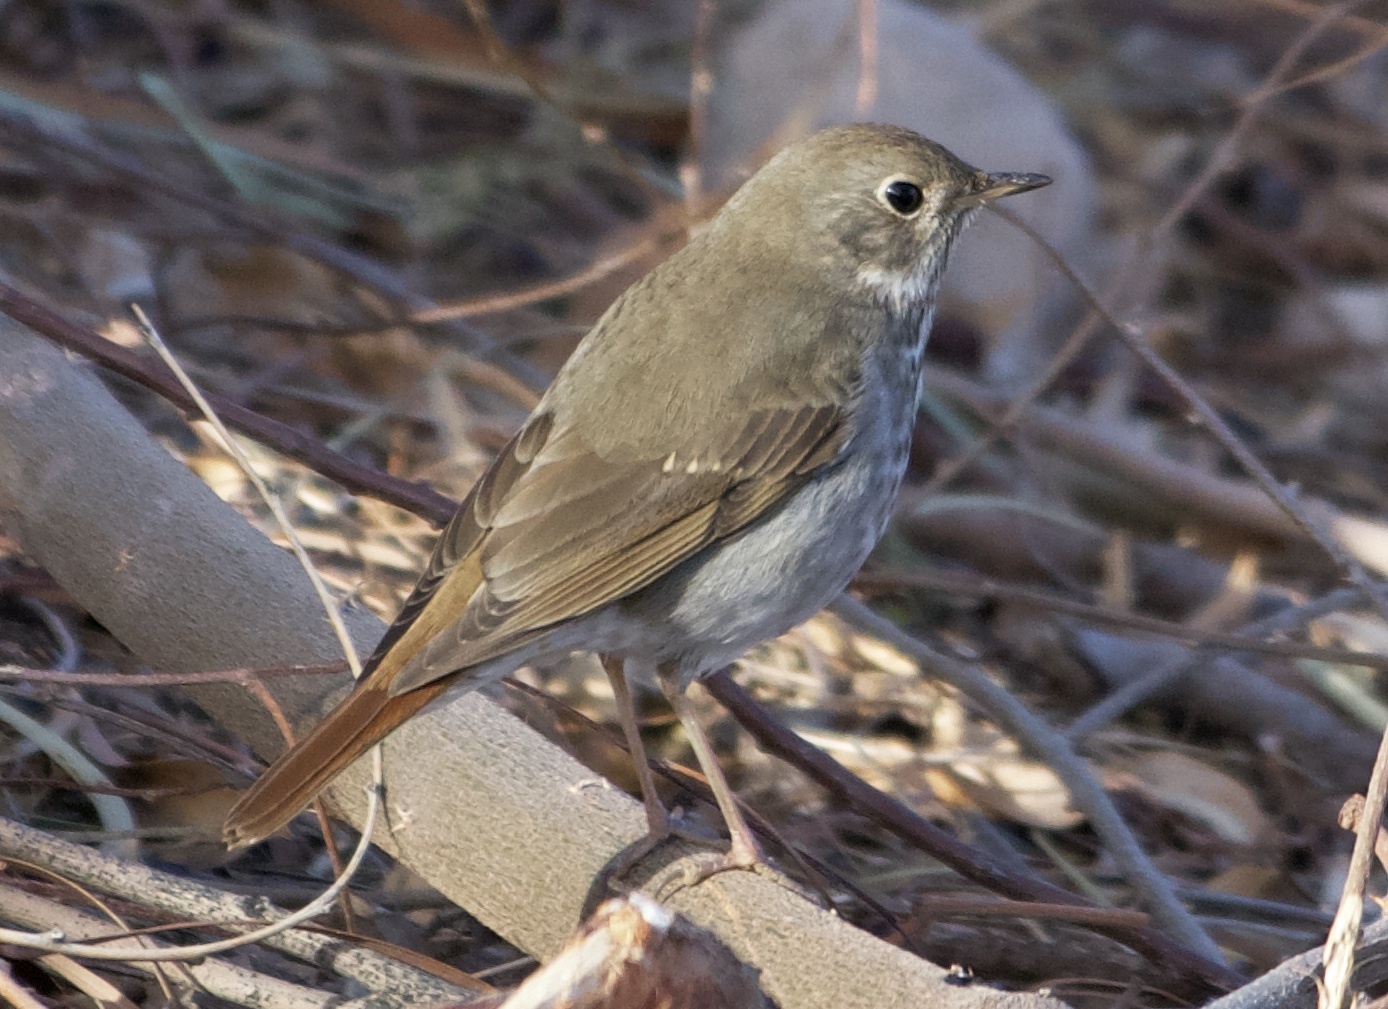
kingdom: Animalia
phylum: Chordata
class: Aves
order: Passeriformes
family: Turdidae
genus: Catharus
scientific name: Catharus guttatus
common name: Hermit thrush
